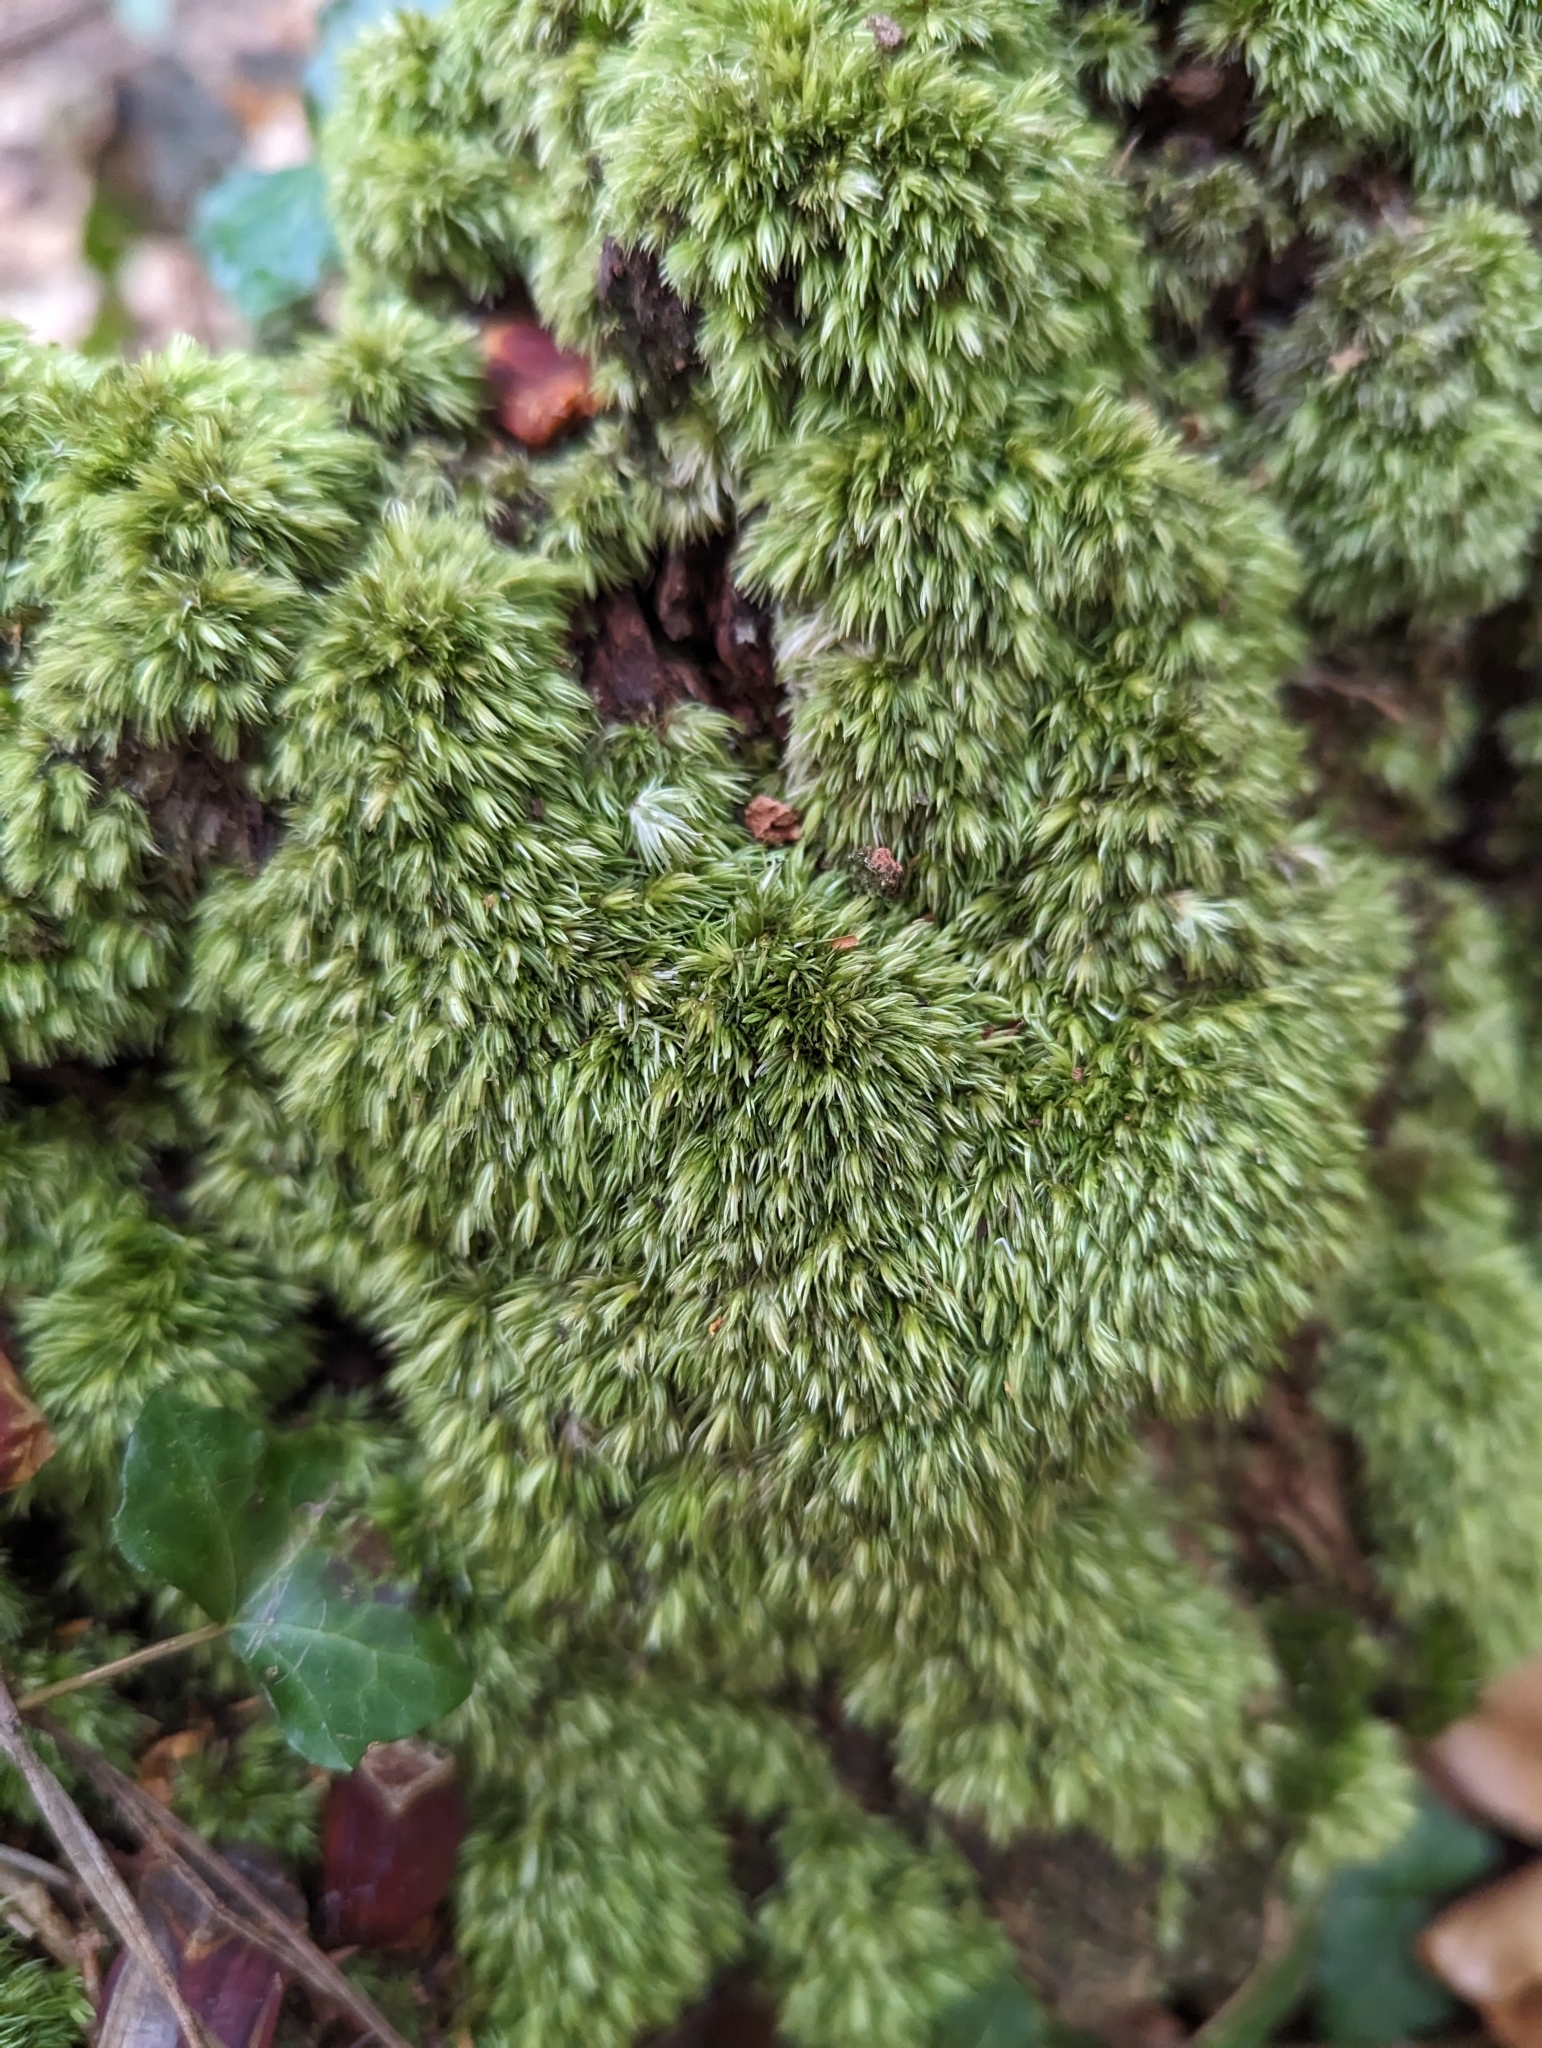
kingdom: Plantae
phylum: Bryophyta
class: Bryopsida
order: Dicranales
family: Leucobryaceae
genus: Leucobryum
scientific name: Leucobryum glaucum
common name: Large white-moss
